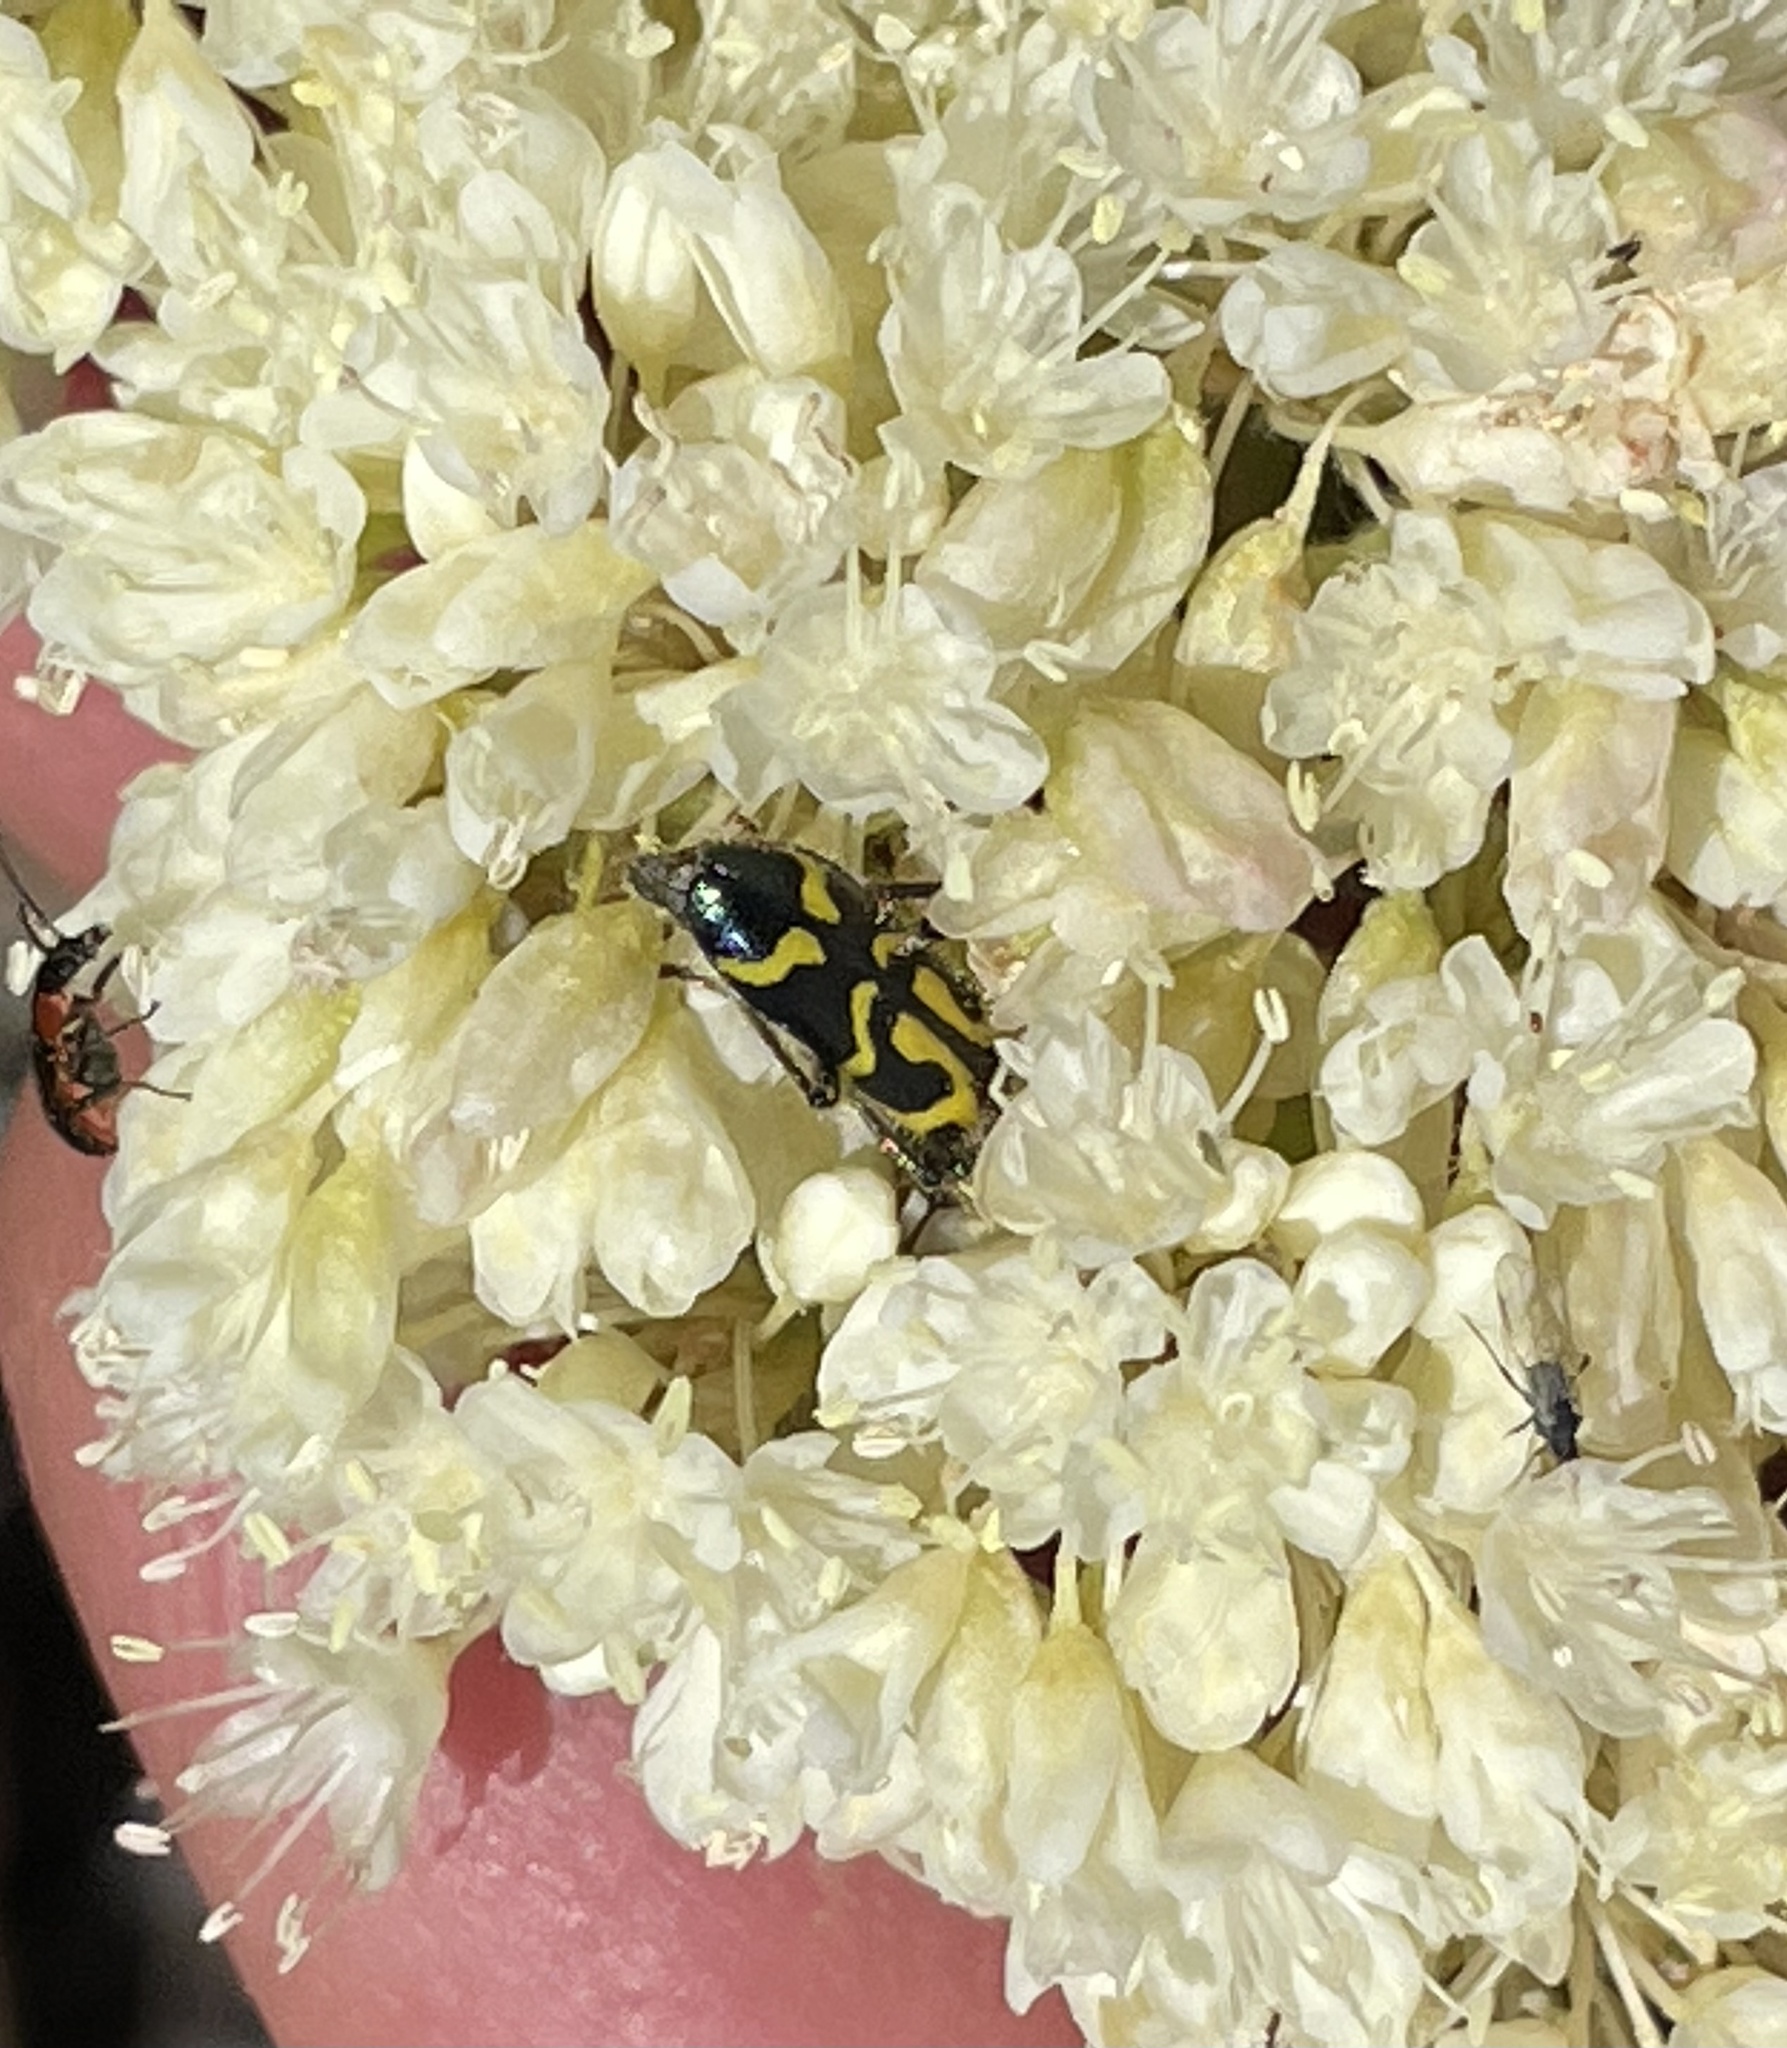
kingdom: Animalia
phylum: Arthropoda
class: Insecta
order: Coleoptera
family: Cleridae
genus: Trichodes
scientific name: Trichodes ornatus
